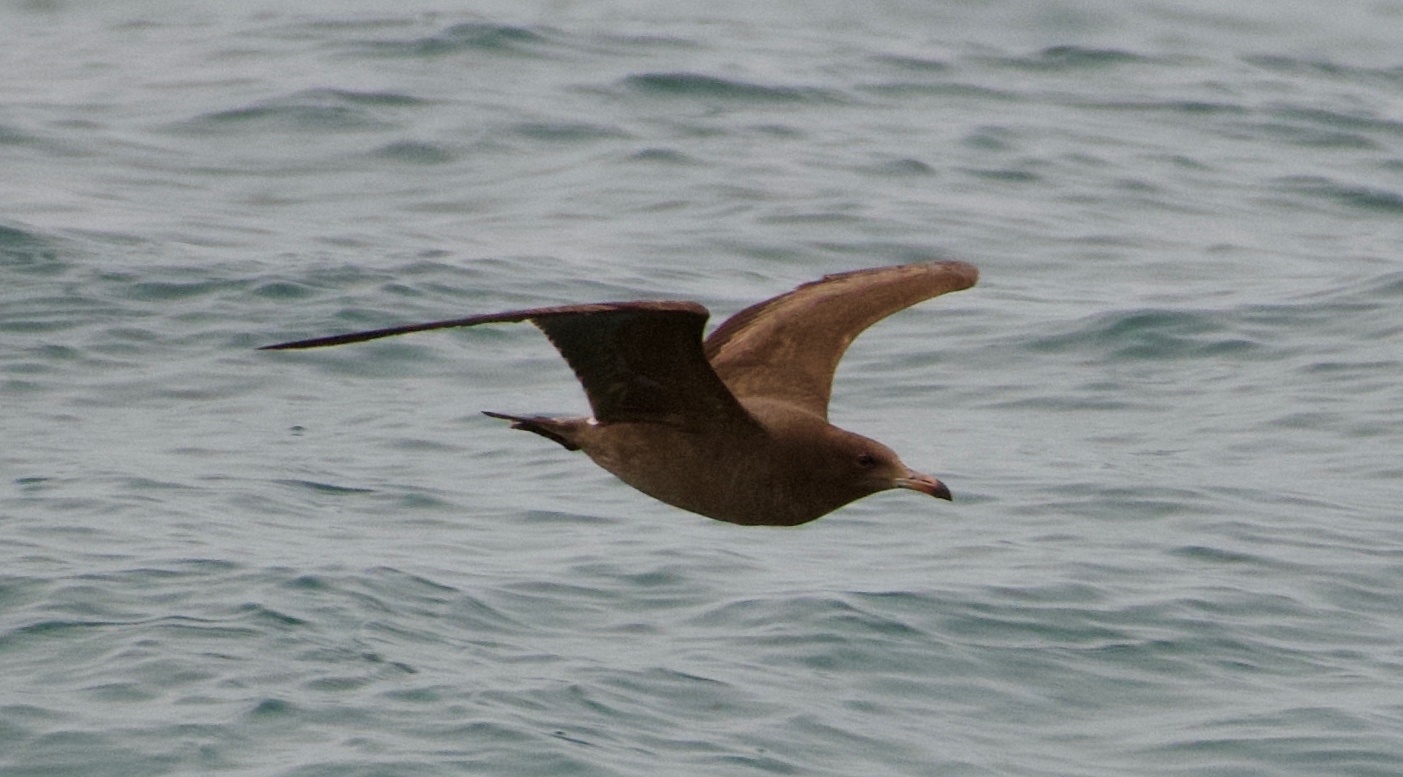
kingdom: Animalia
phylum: Chordata
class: Aves
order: Charadriiformes
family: Laridae
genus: Larus
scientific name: Larus heermanni
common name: Heermann's gull
